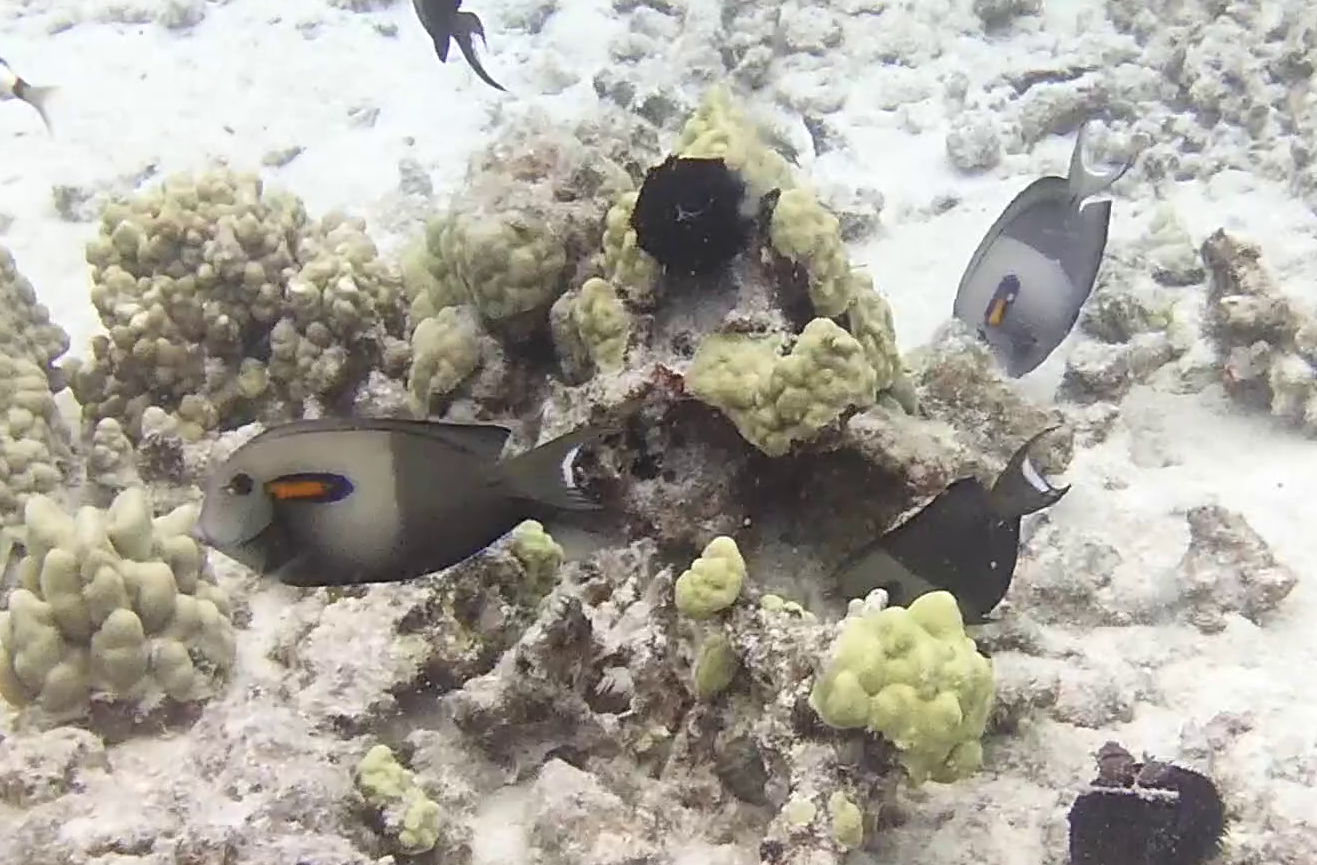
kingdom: Animalia
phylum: Chordata
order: Perciformes
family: Acanthuridae
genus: Acanthurus
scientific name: Acanthurus olivaceus
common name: Gendarme fish
